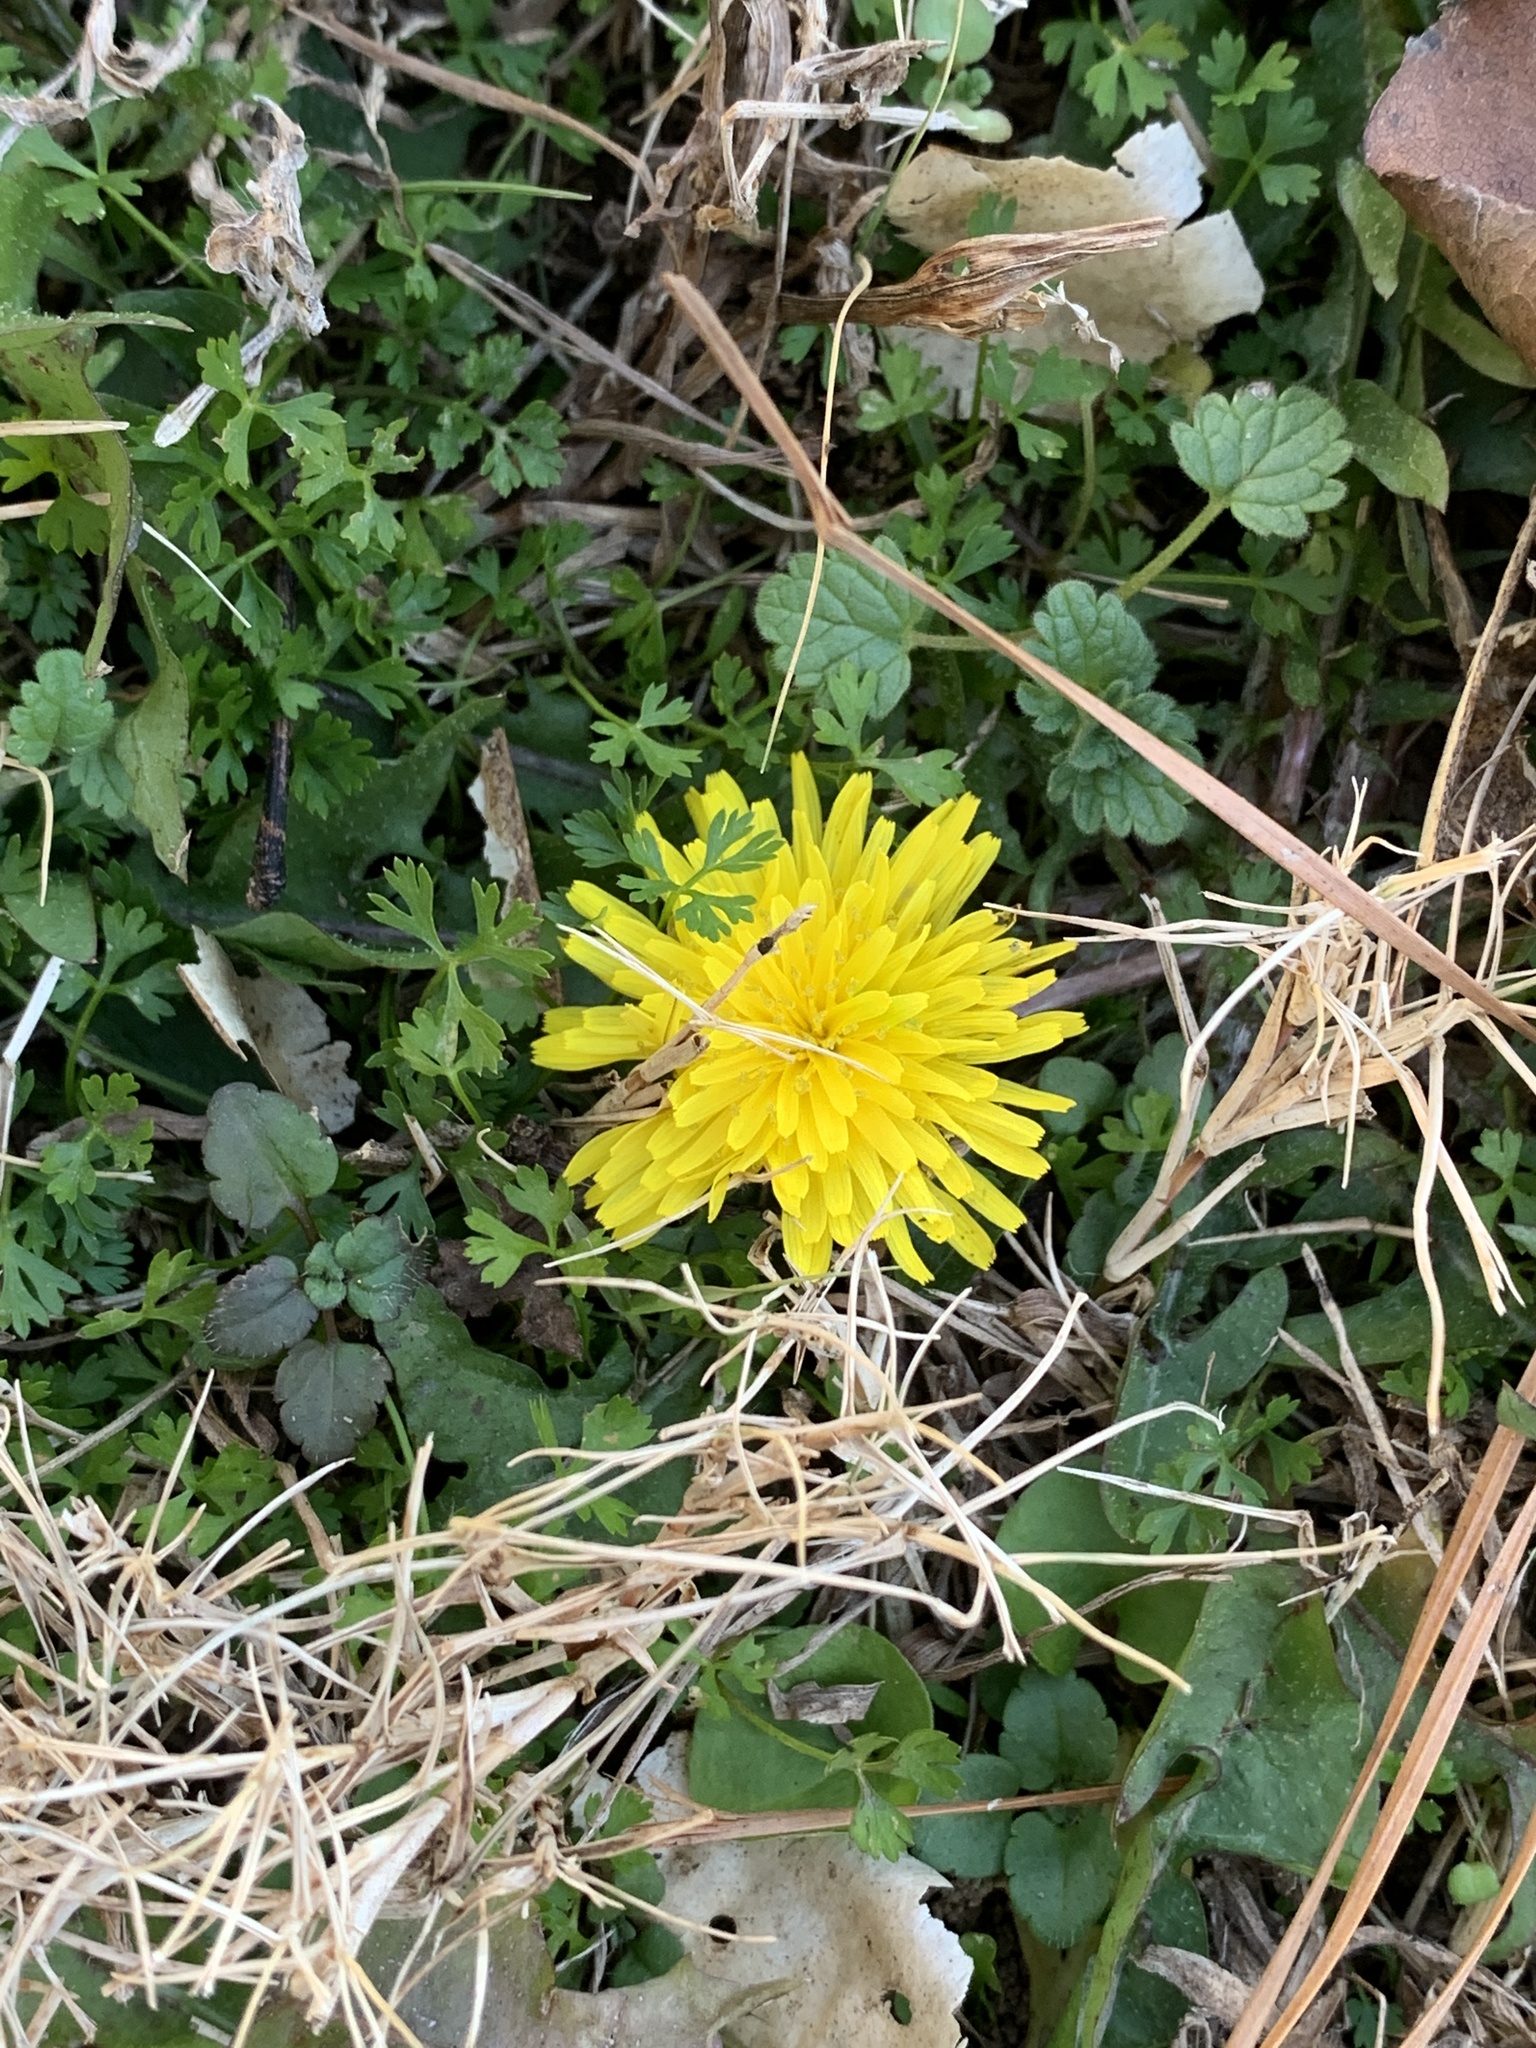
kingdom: Plantae
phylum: Tracheophyta
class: Magnoliopsida
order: Asterales
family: Asteraceae
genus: Taraxacum
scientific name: Taraxacum
